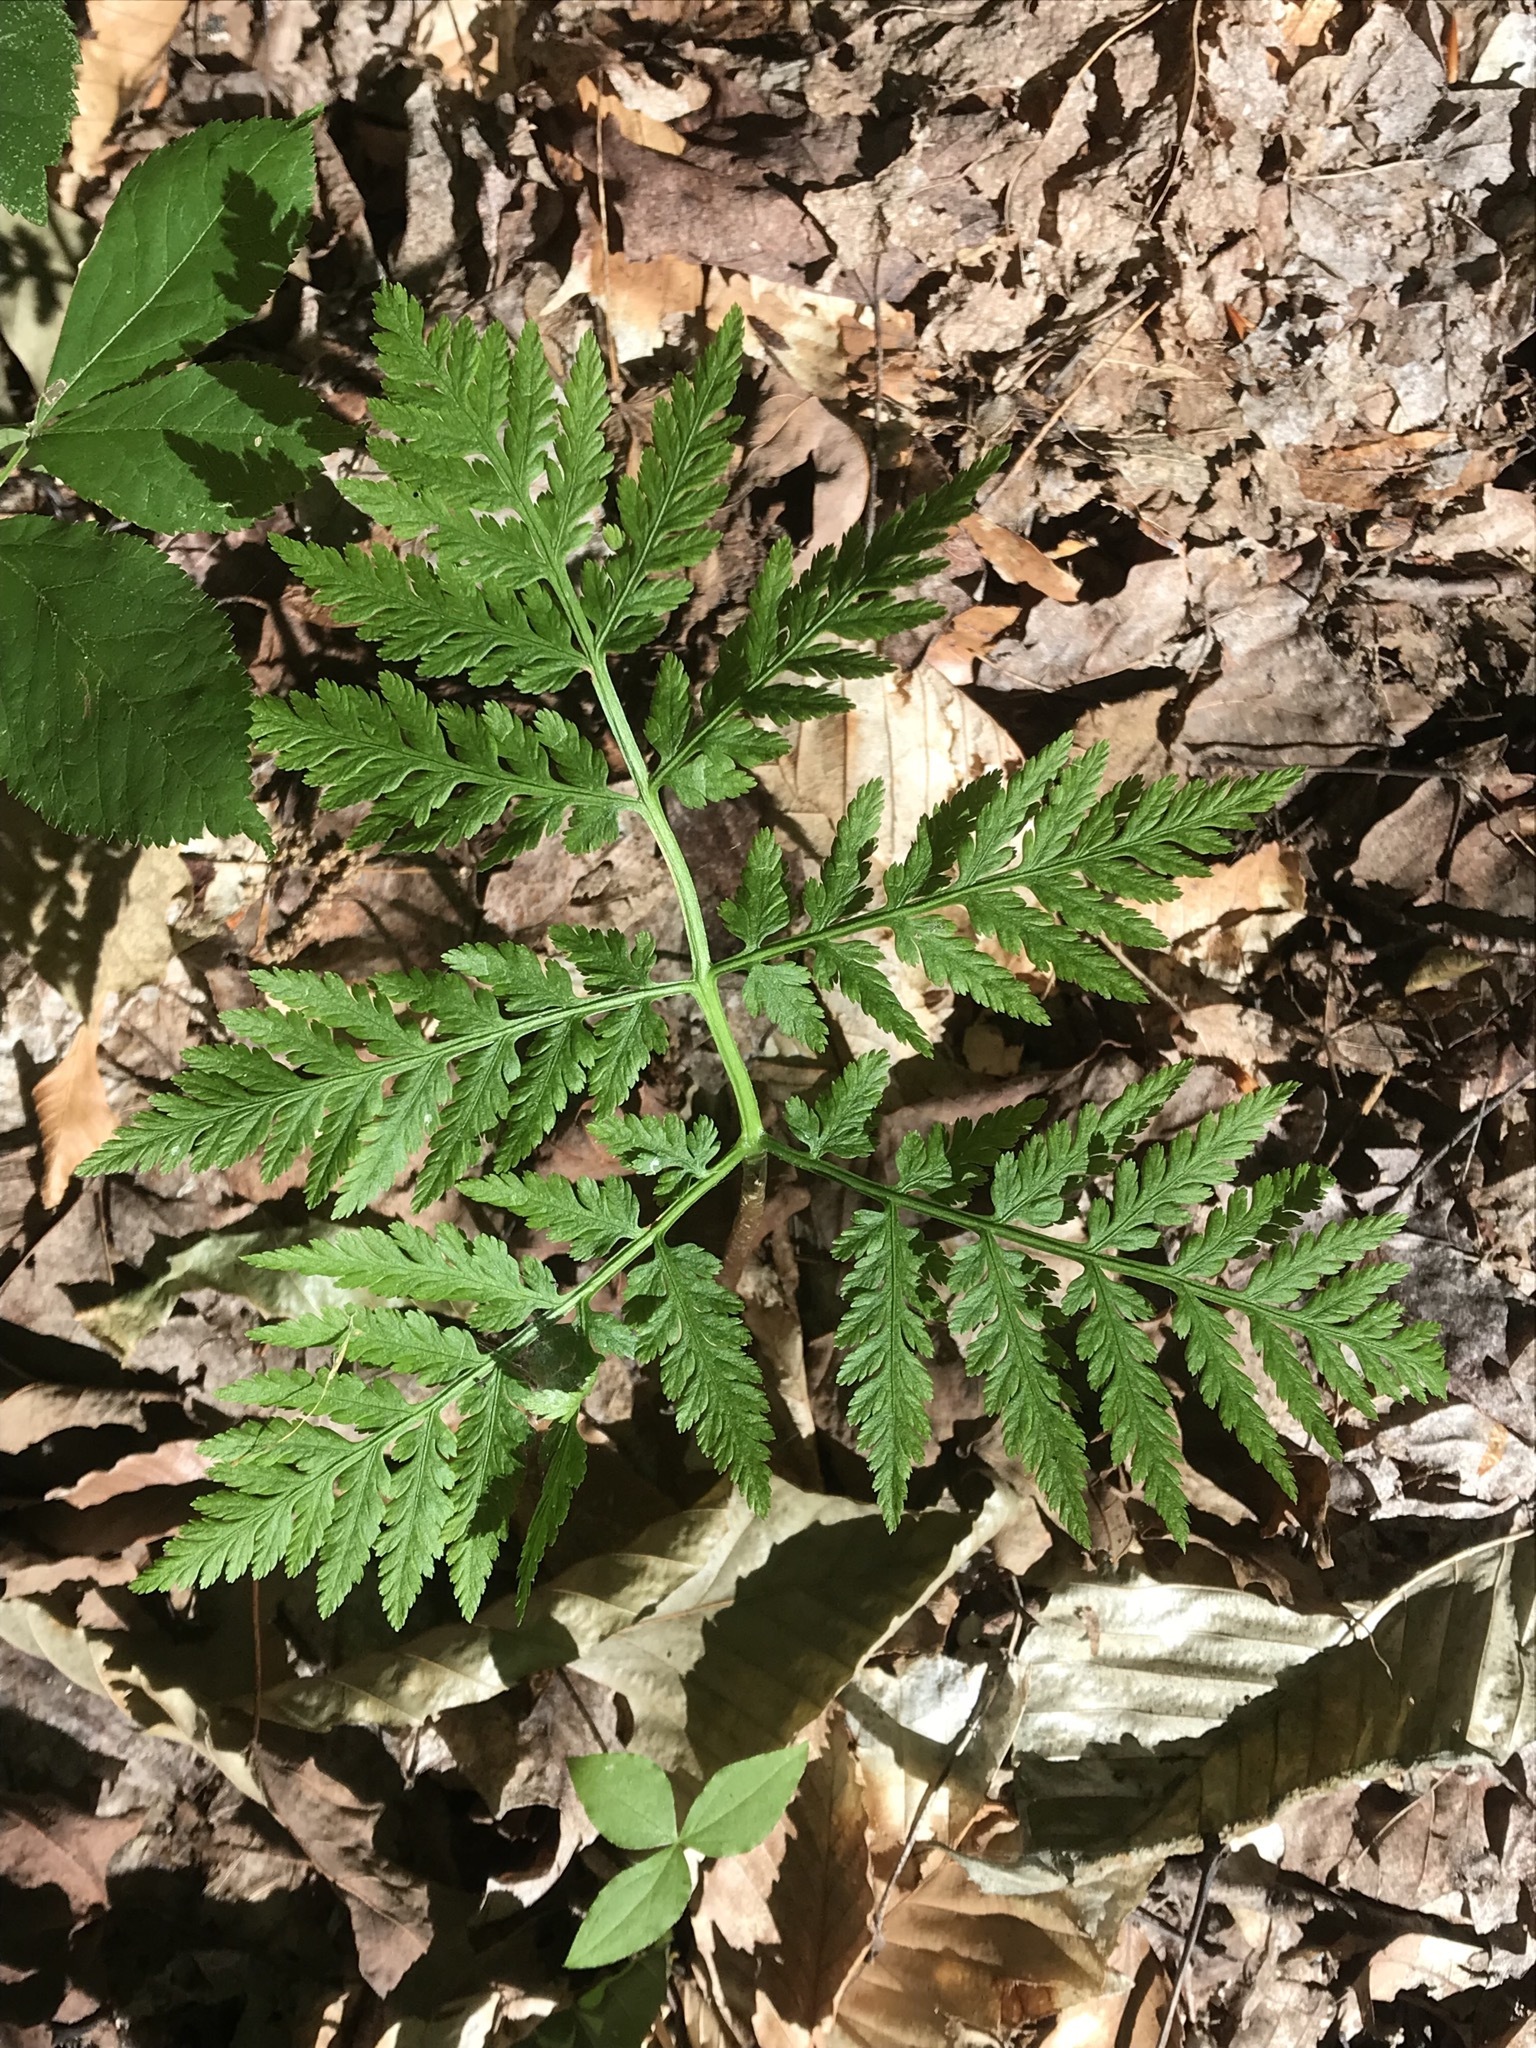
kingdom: Plantae
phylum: Tracheophyta
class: Polypodiopsida
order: Ophioglossales
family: Ophioglossaceae
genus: Botrypus
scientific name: Botrypus virginianus
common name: Common grapefern
